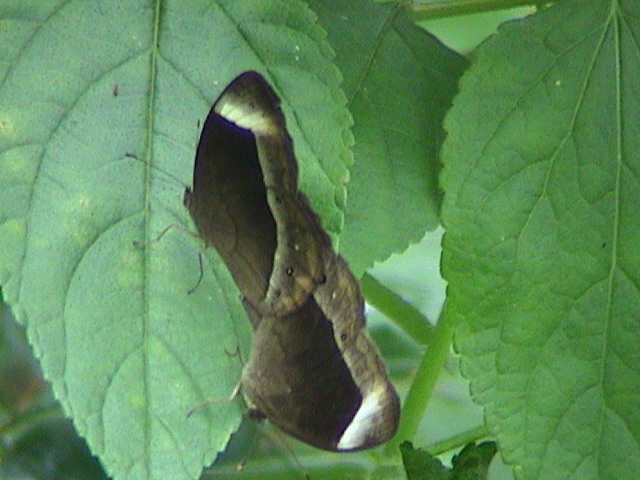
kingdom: Animalia
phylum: Arthropoda
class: Insecta
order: Lepidoptera
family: Nymphalidae
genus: Mycalesis
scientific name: Mycalesis anaxias
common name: White-bar bushbrown
